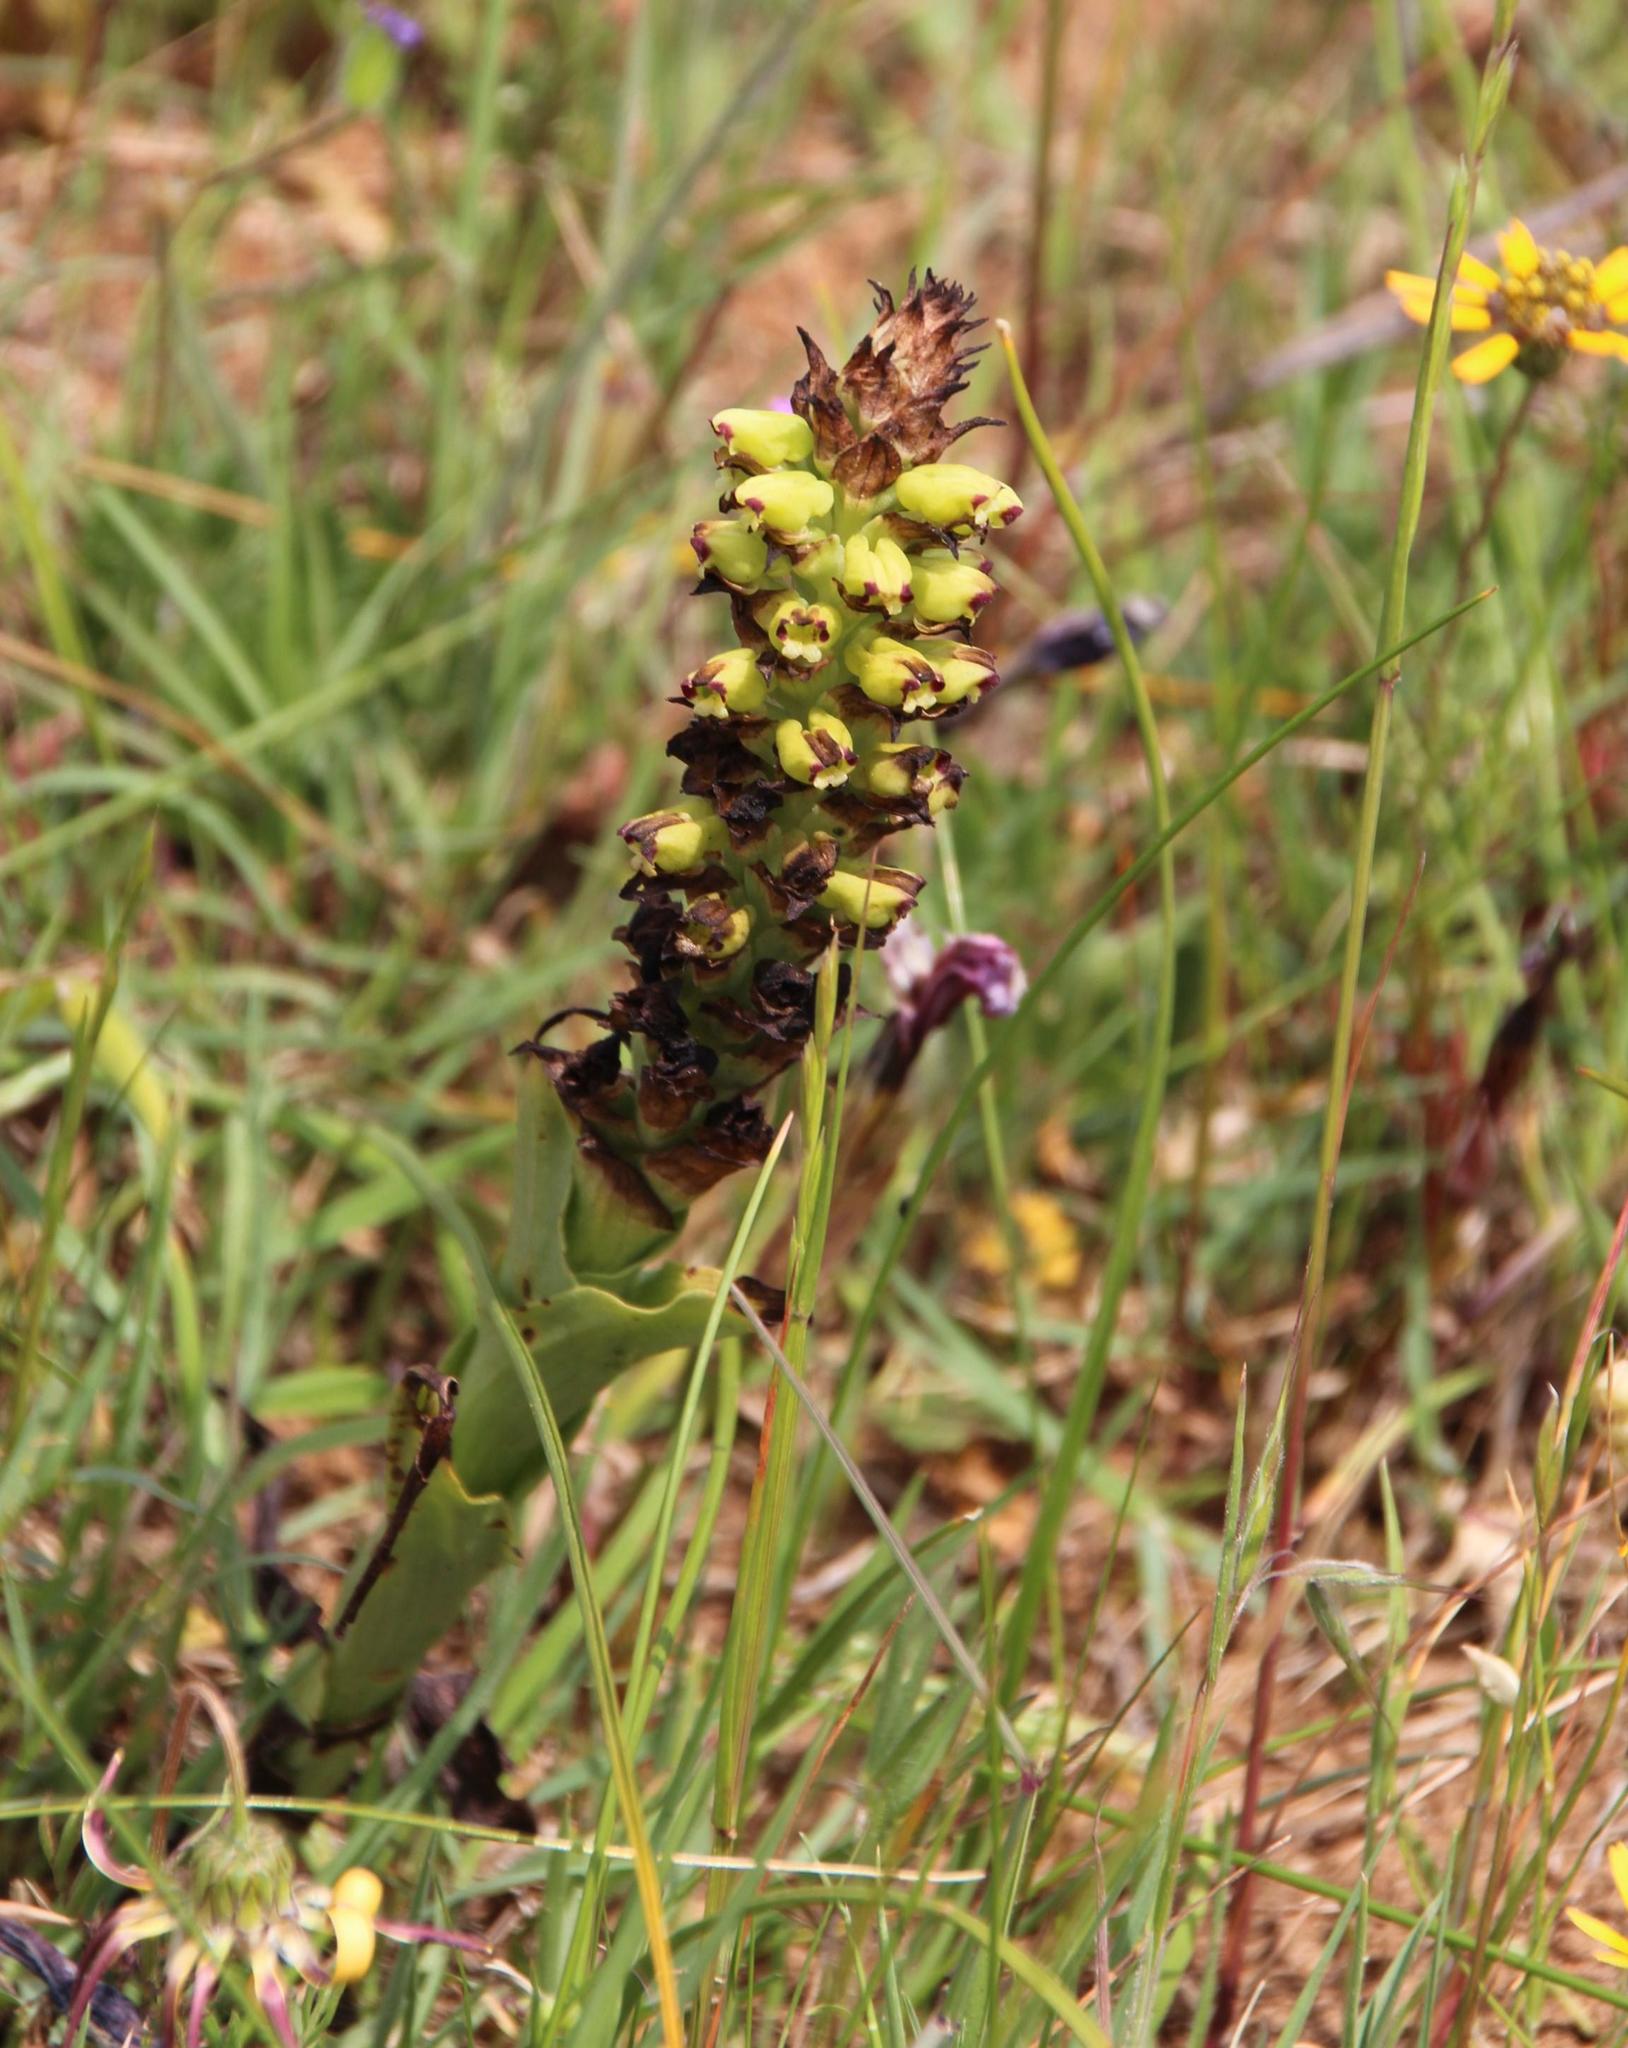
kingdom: Plantae
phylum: Tracheophyta
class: Liliopsida
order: Asparagales
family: Orchidaceae
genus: Corycium
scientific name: Corycium orobanchoides
